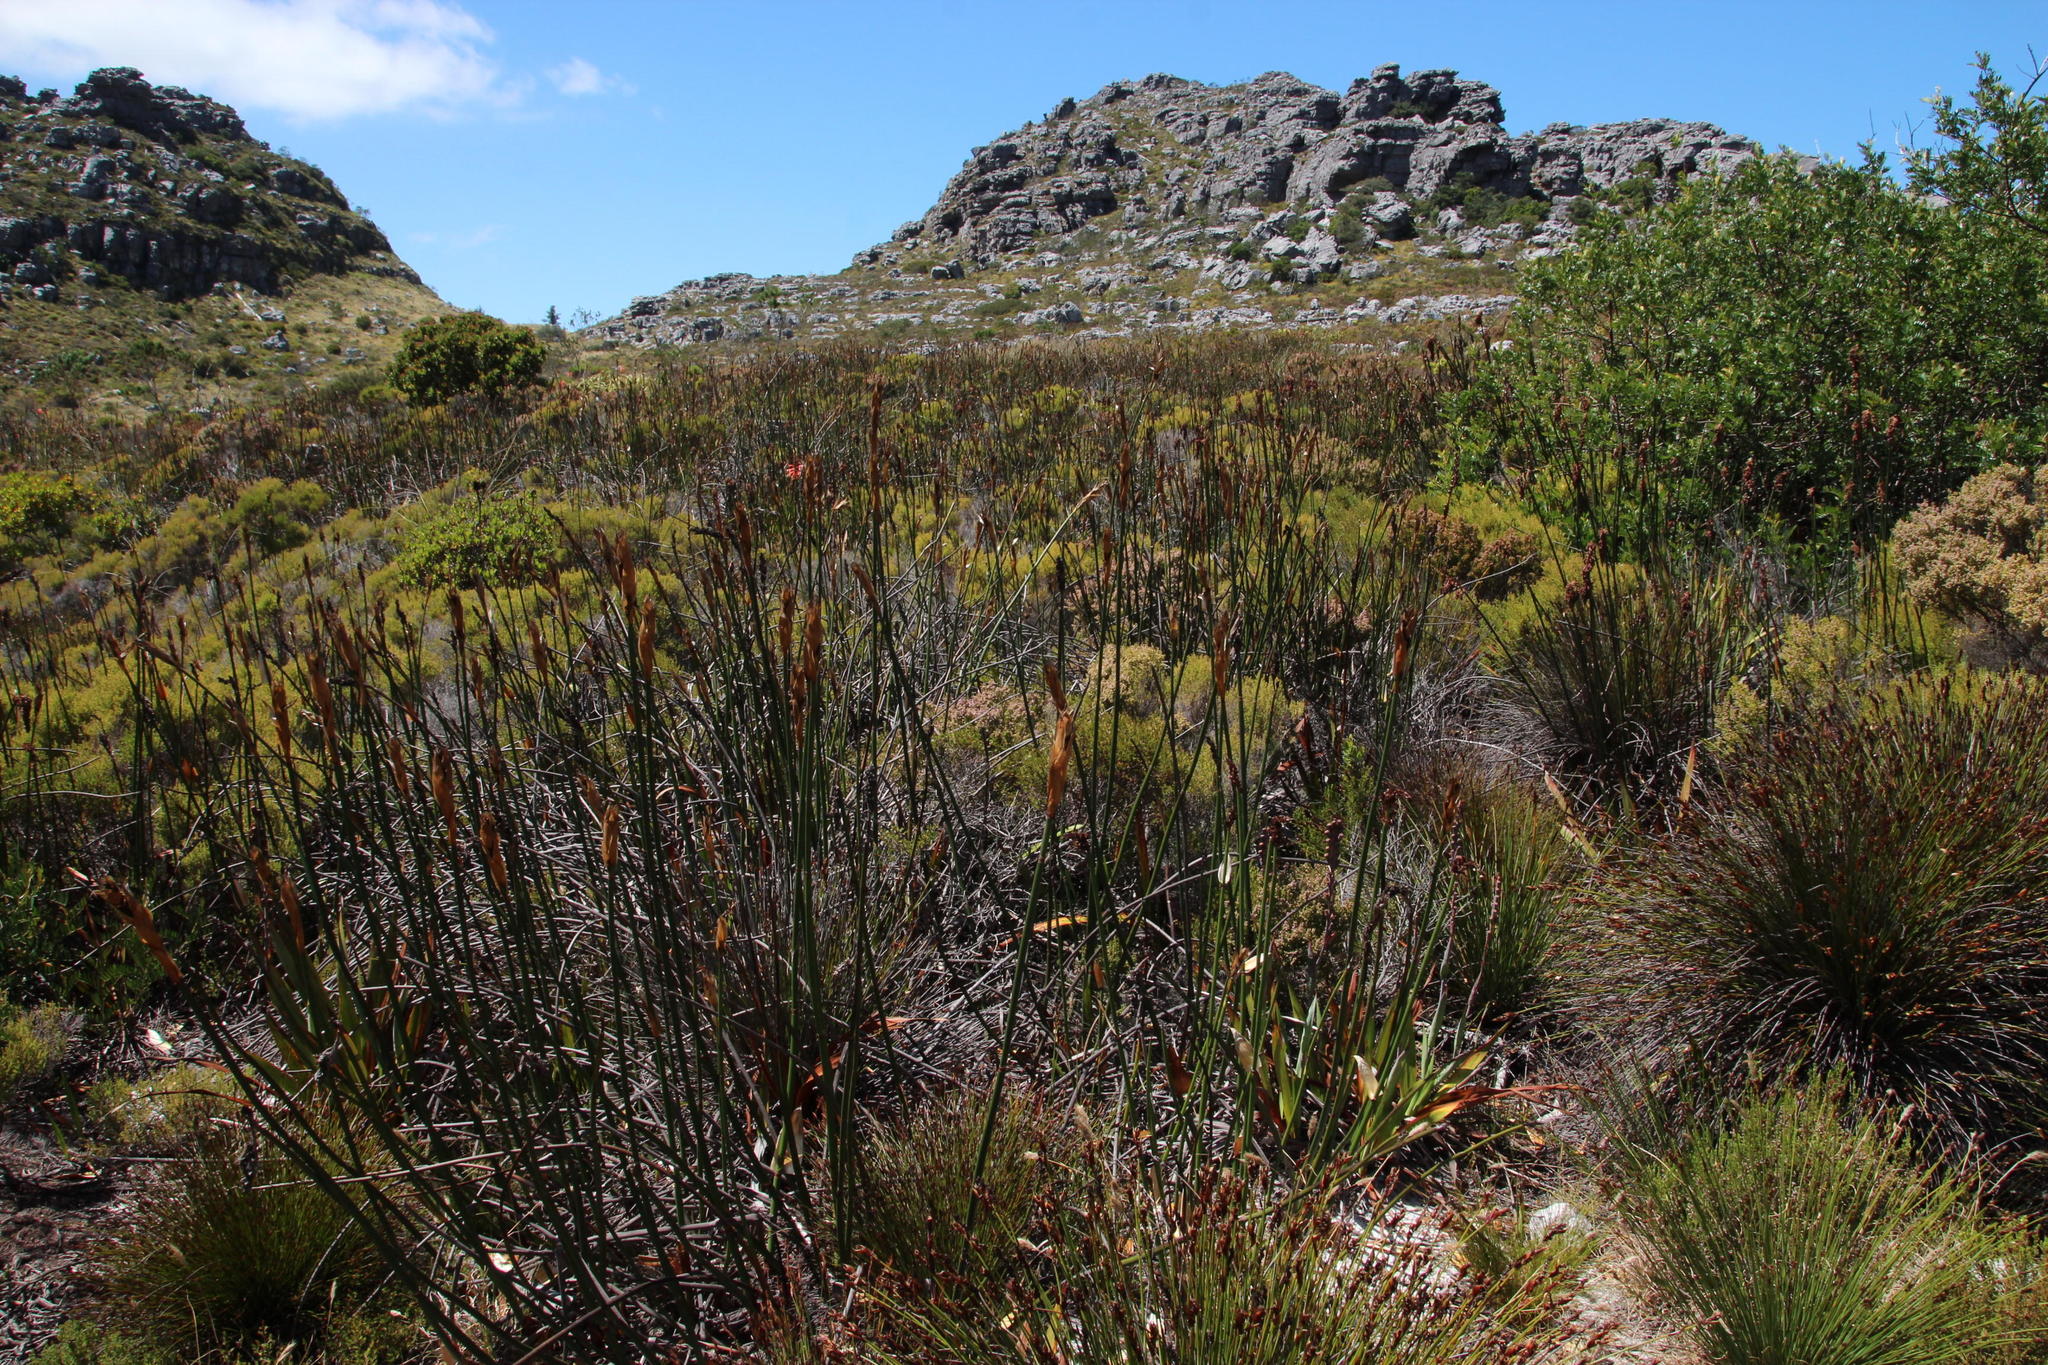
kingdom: Plantae
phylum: Tracheophyta
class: Liliopsida
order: Poales
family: Restionaceae
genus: Elegia
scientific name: Elegia mucronata
